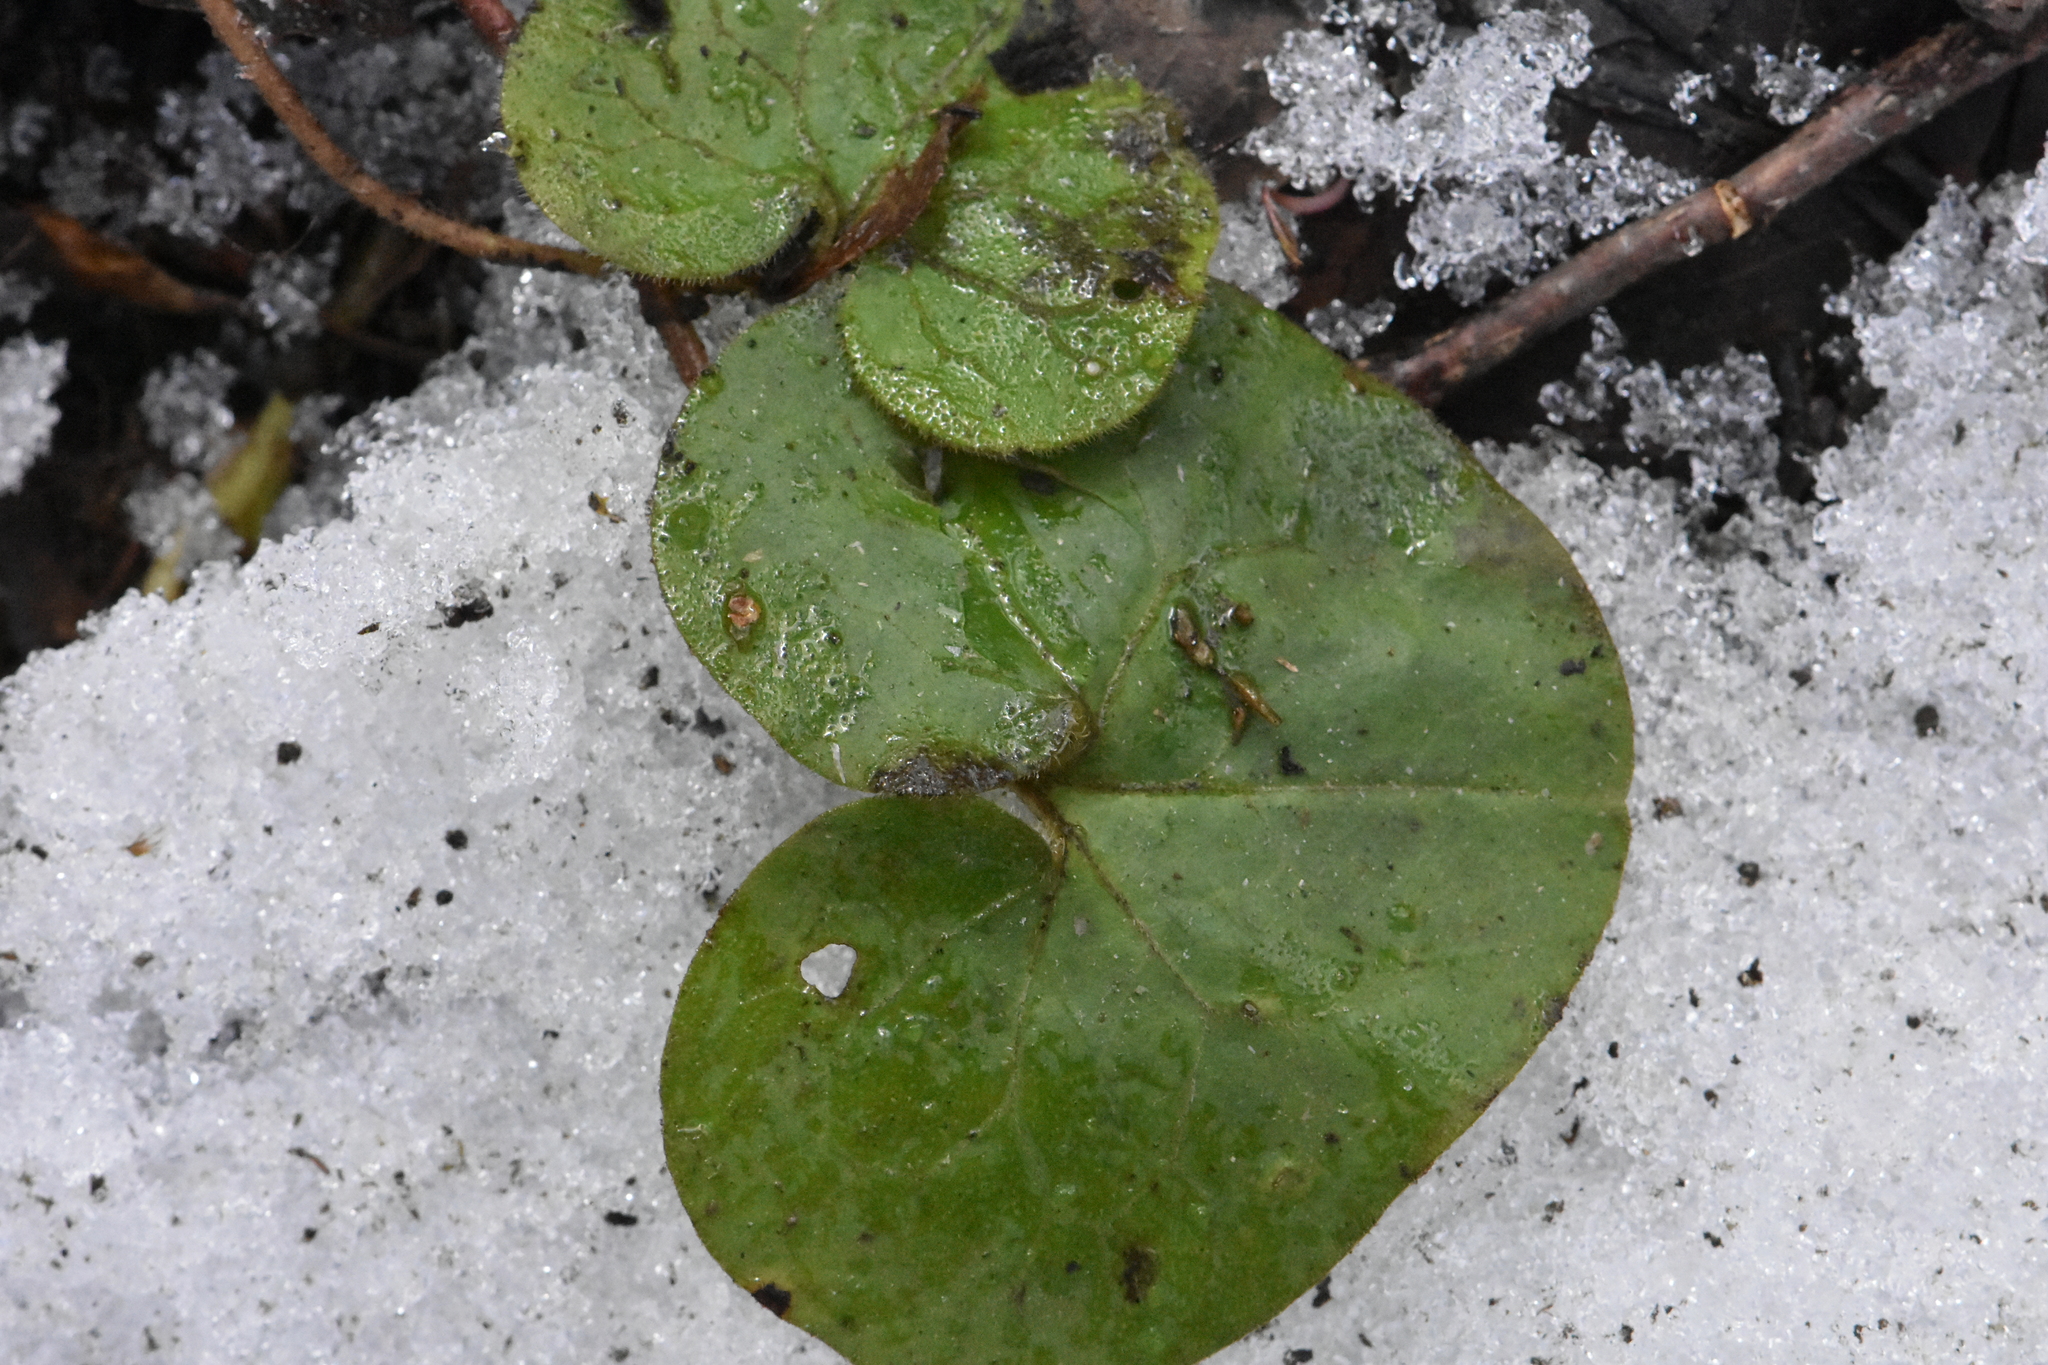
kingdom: Plantae
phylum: Tracheophyta
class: Magnoliopsida
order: Piperales
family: Aristolochiaceae
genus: Asarum
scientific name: Asarum europaeum
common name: Asarabacca
